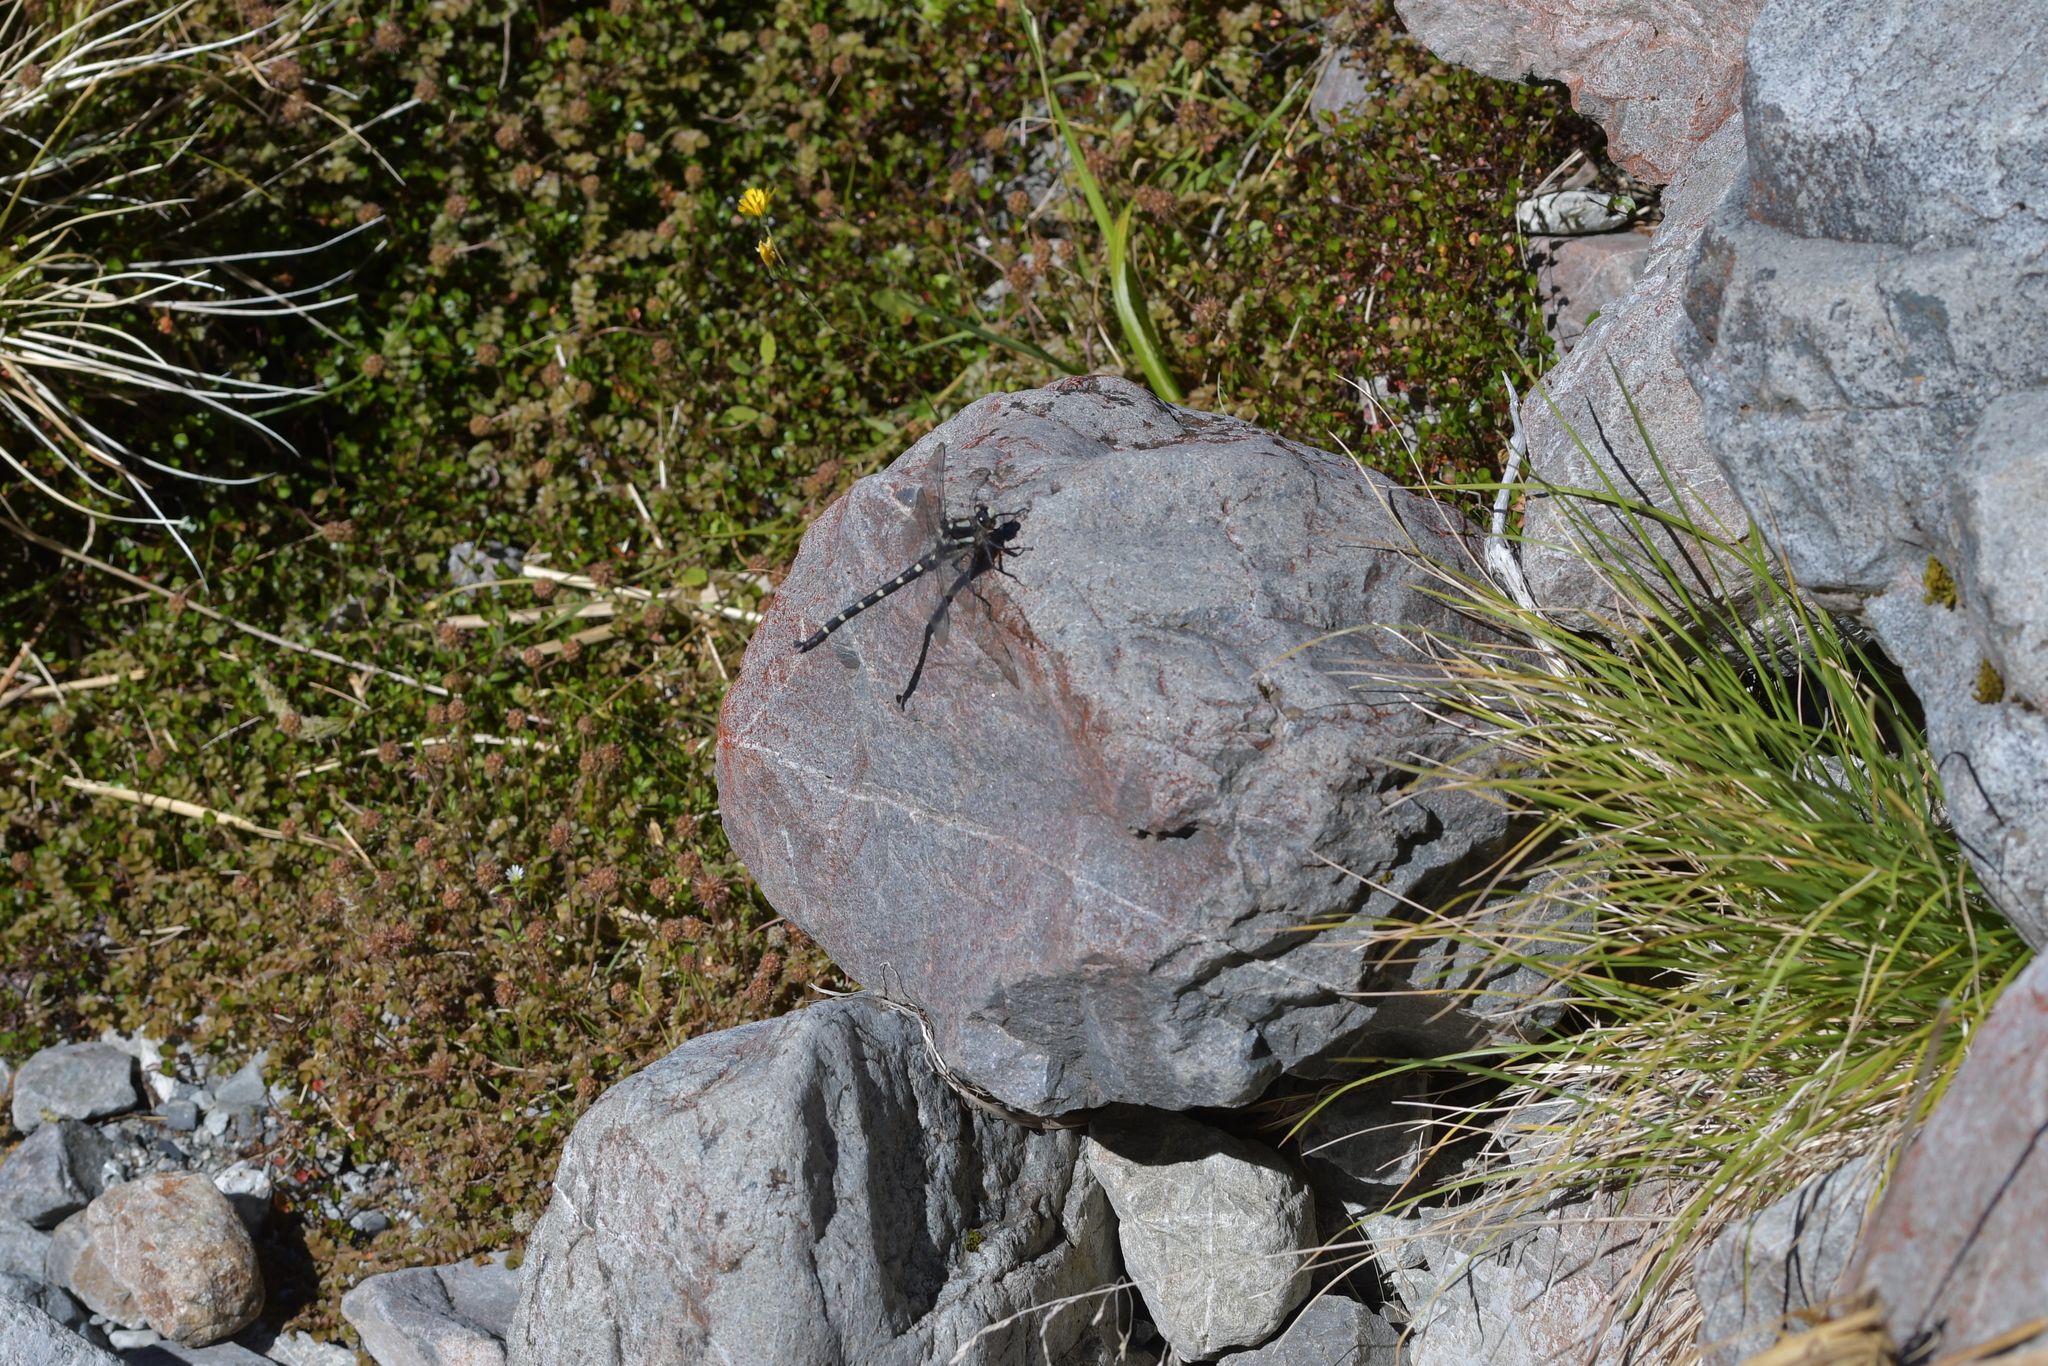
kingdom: Animalia
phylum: Arthropoda
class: Insecta
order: Odonata
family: Petaluridae
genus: Uropetala
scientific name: Uropetala chiltoni
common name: Mountain giant dragonfly
